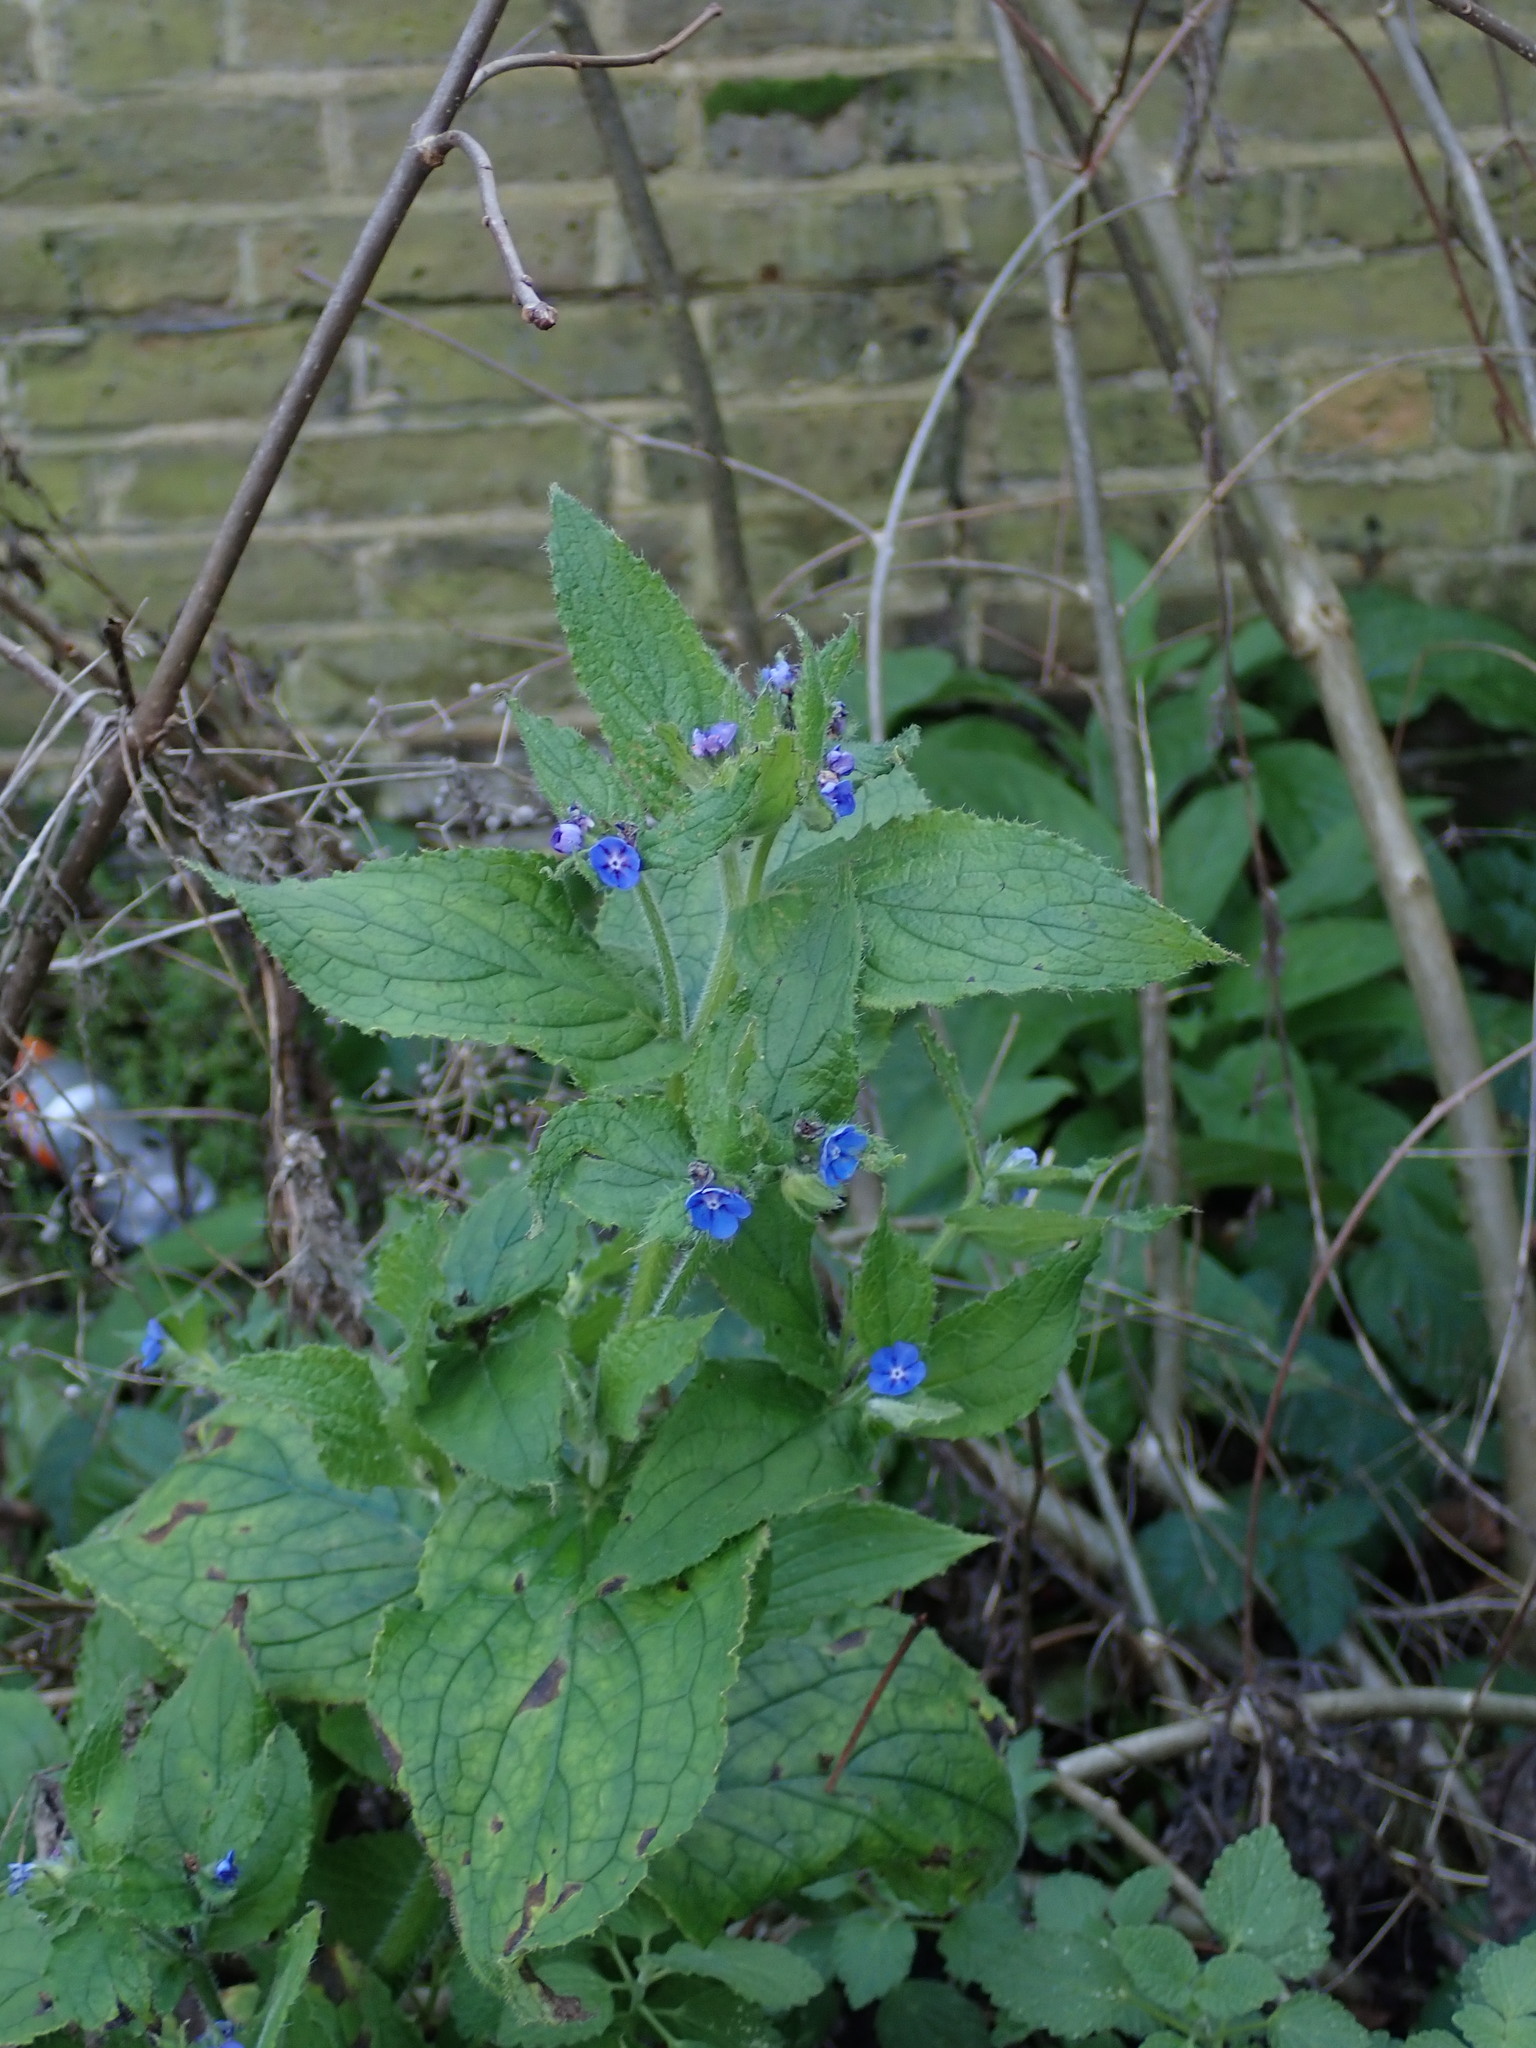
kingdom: Plantae
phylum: Tracheophyta
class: Magnoliopsida
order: Boraginales
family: Boraginaceae
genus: Pentaglottis
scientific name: Pentaglottis sempervirens
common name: Green alkanet
